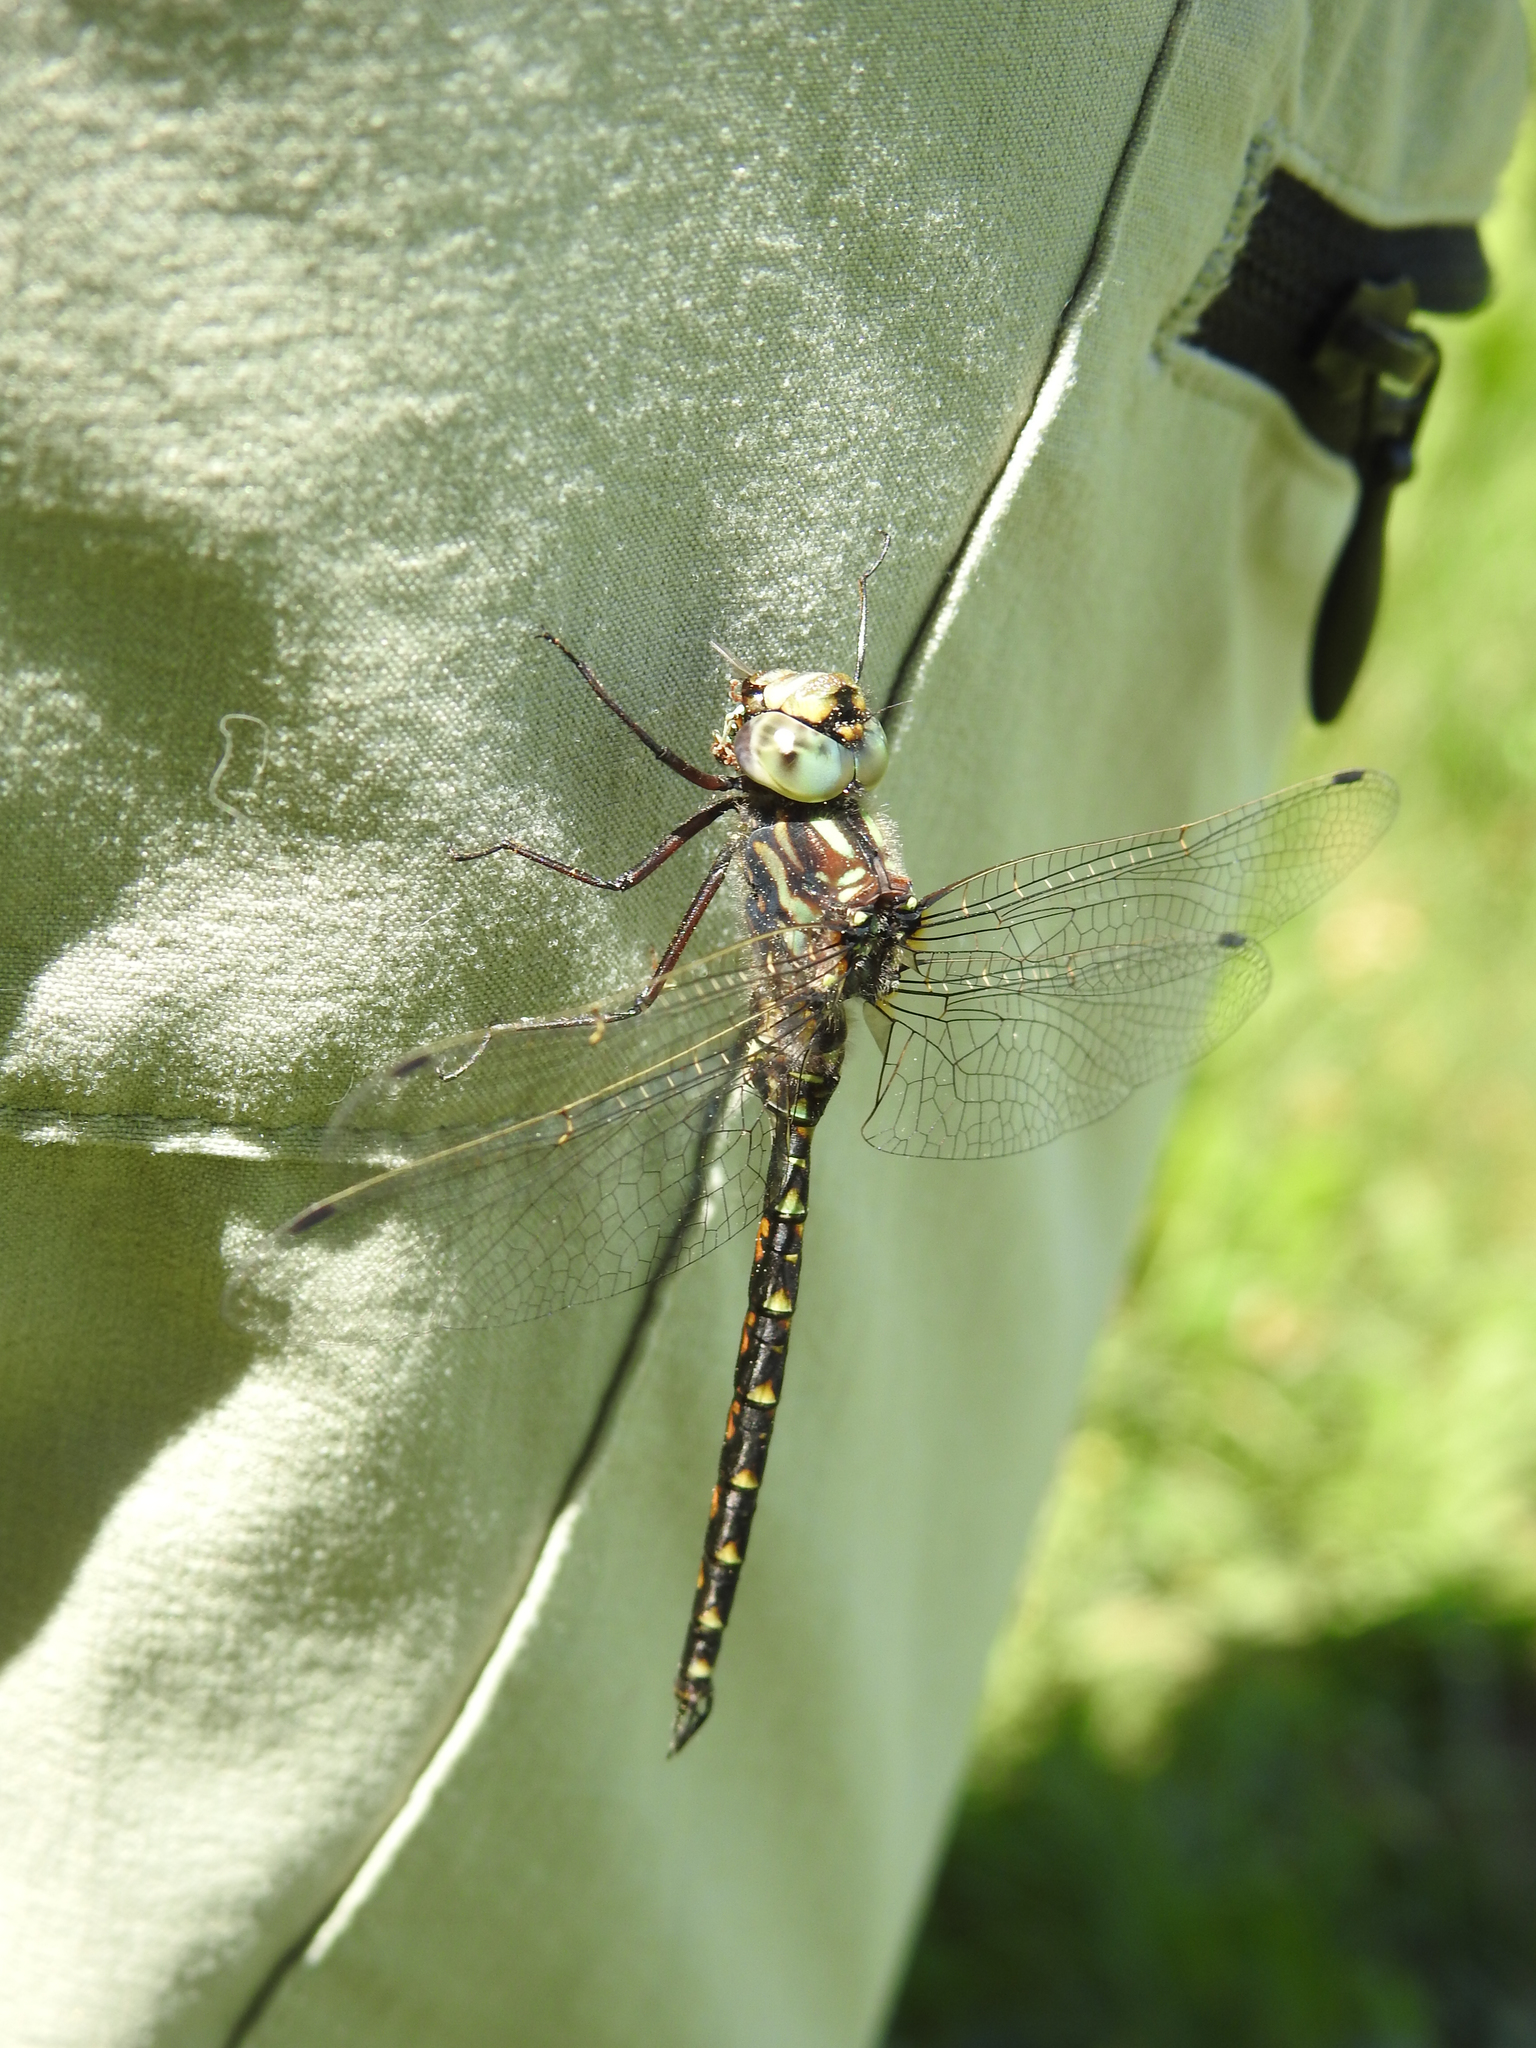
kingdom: Animalia
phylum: Arthropoda
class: Insecta
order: Odonata
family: Aeshnidae
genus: Gomphaeschna
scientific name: Gomphaeschna furcillata
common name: Harlequin darner
